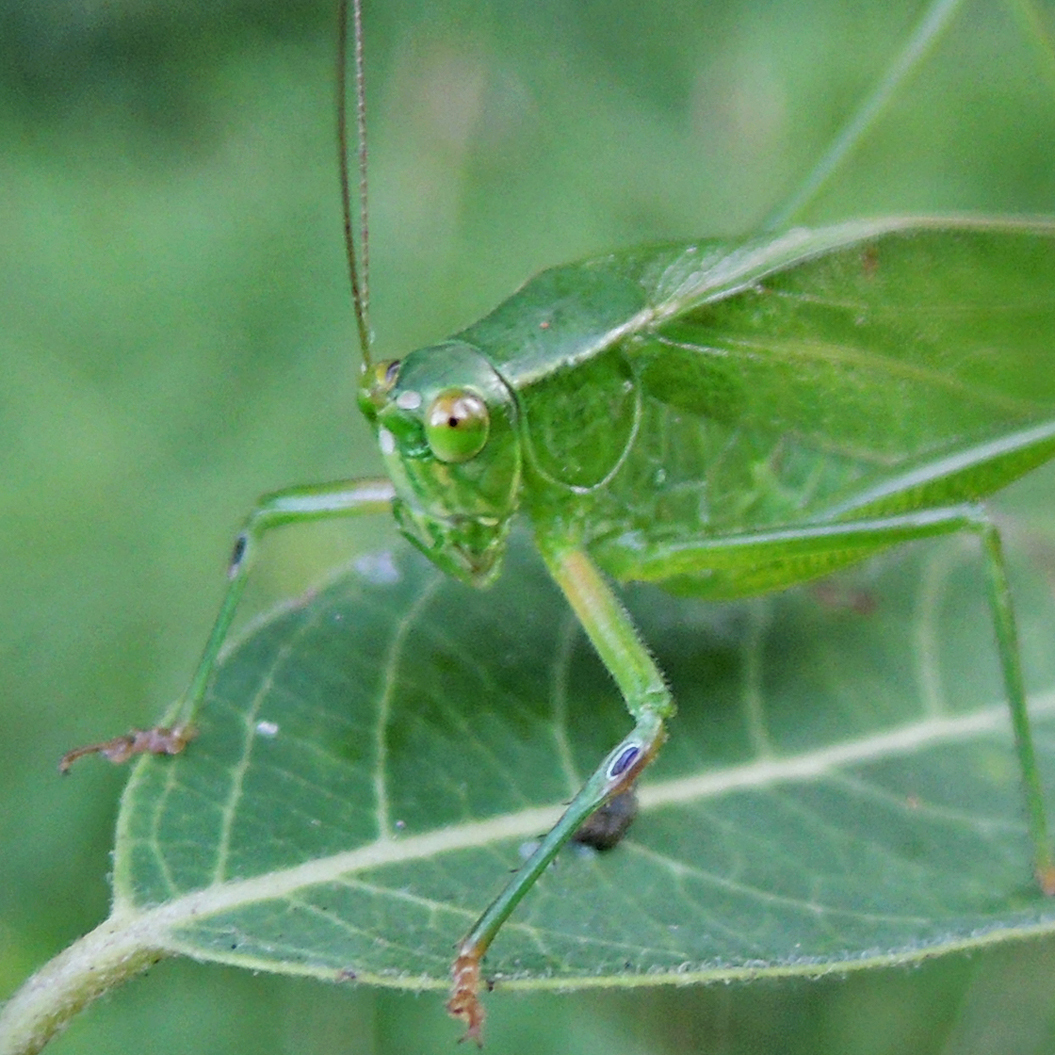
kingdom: Animalia
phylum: Arthropoda
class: Insecta
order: Orthoptera
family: Tettigoniidae
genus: Scudderia
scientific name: Scudderia furcata
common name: Fork-tailed bush katydid
